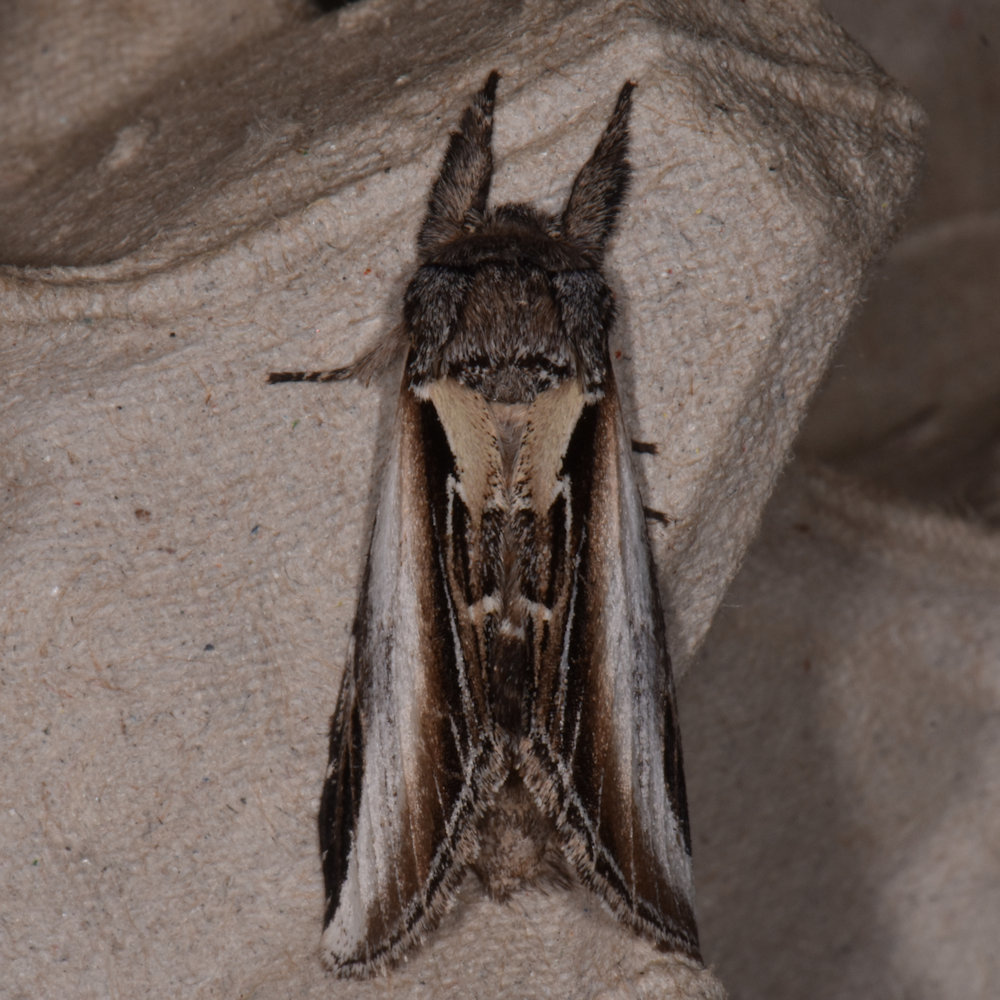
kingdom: Animalia
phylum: Arthropoda
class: Insecta
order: Lepidoptera
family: Notodontidae
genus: Pheosia
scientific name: Pheosia rimosa
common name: Black-rimmed prominent
